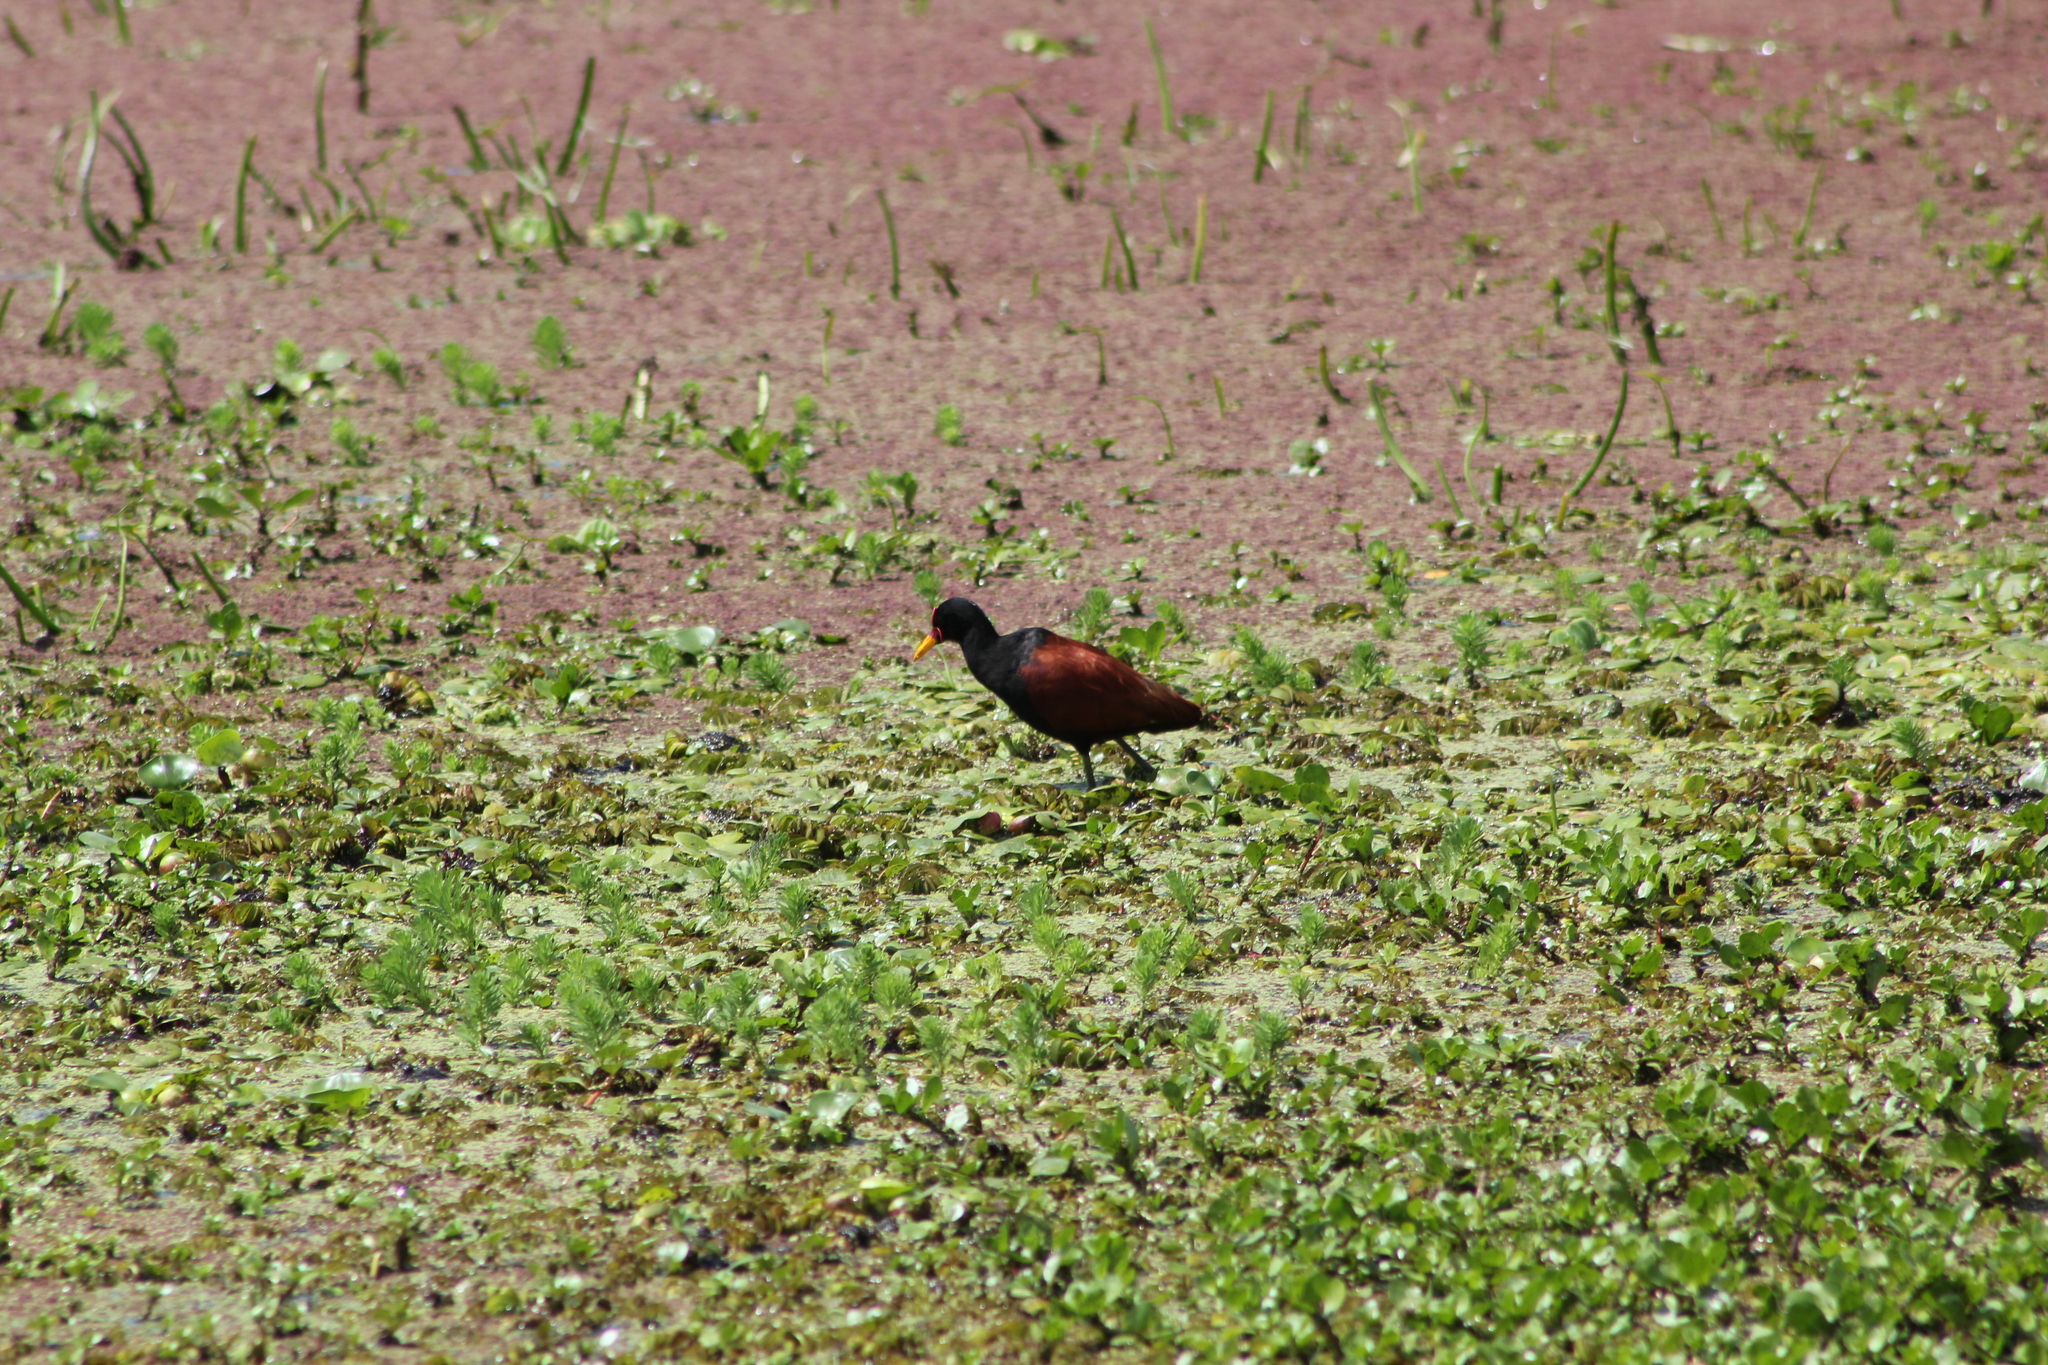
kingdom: Animalia
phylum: Chordata
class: Aves
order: Charadriiformes
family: Jacanidae
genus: Jacana
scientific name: Jacana jacana
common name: Wattled jacana
